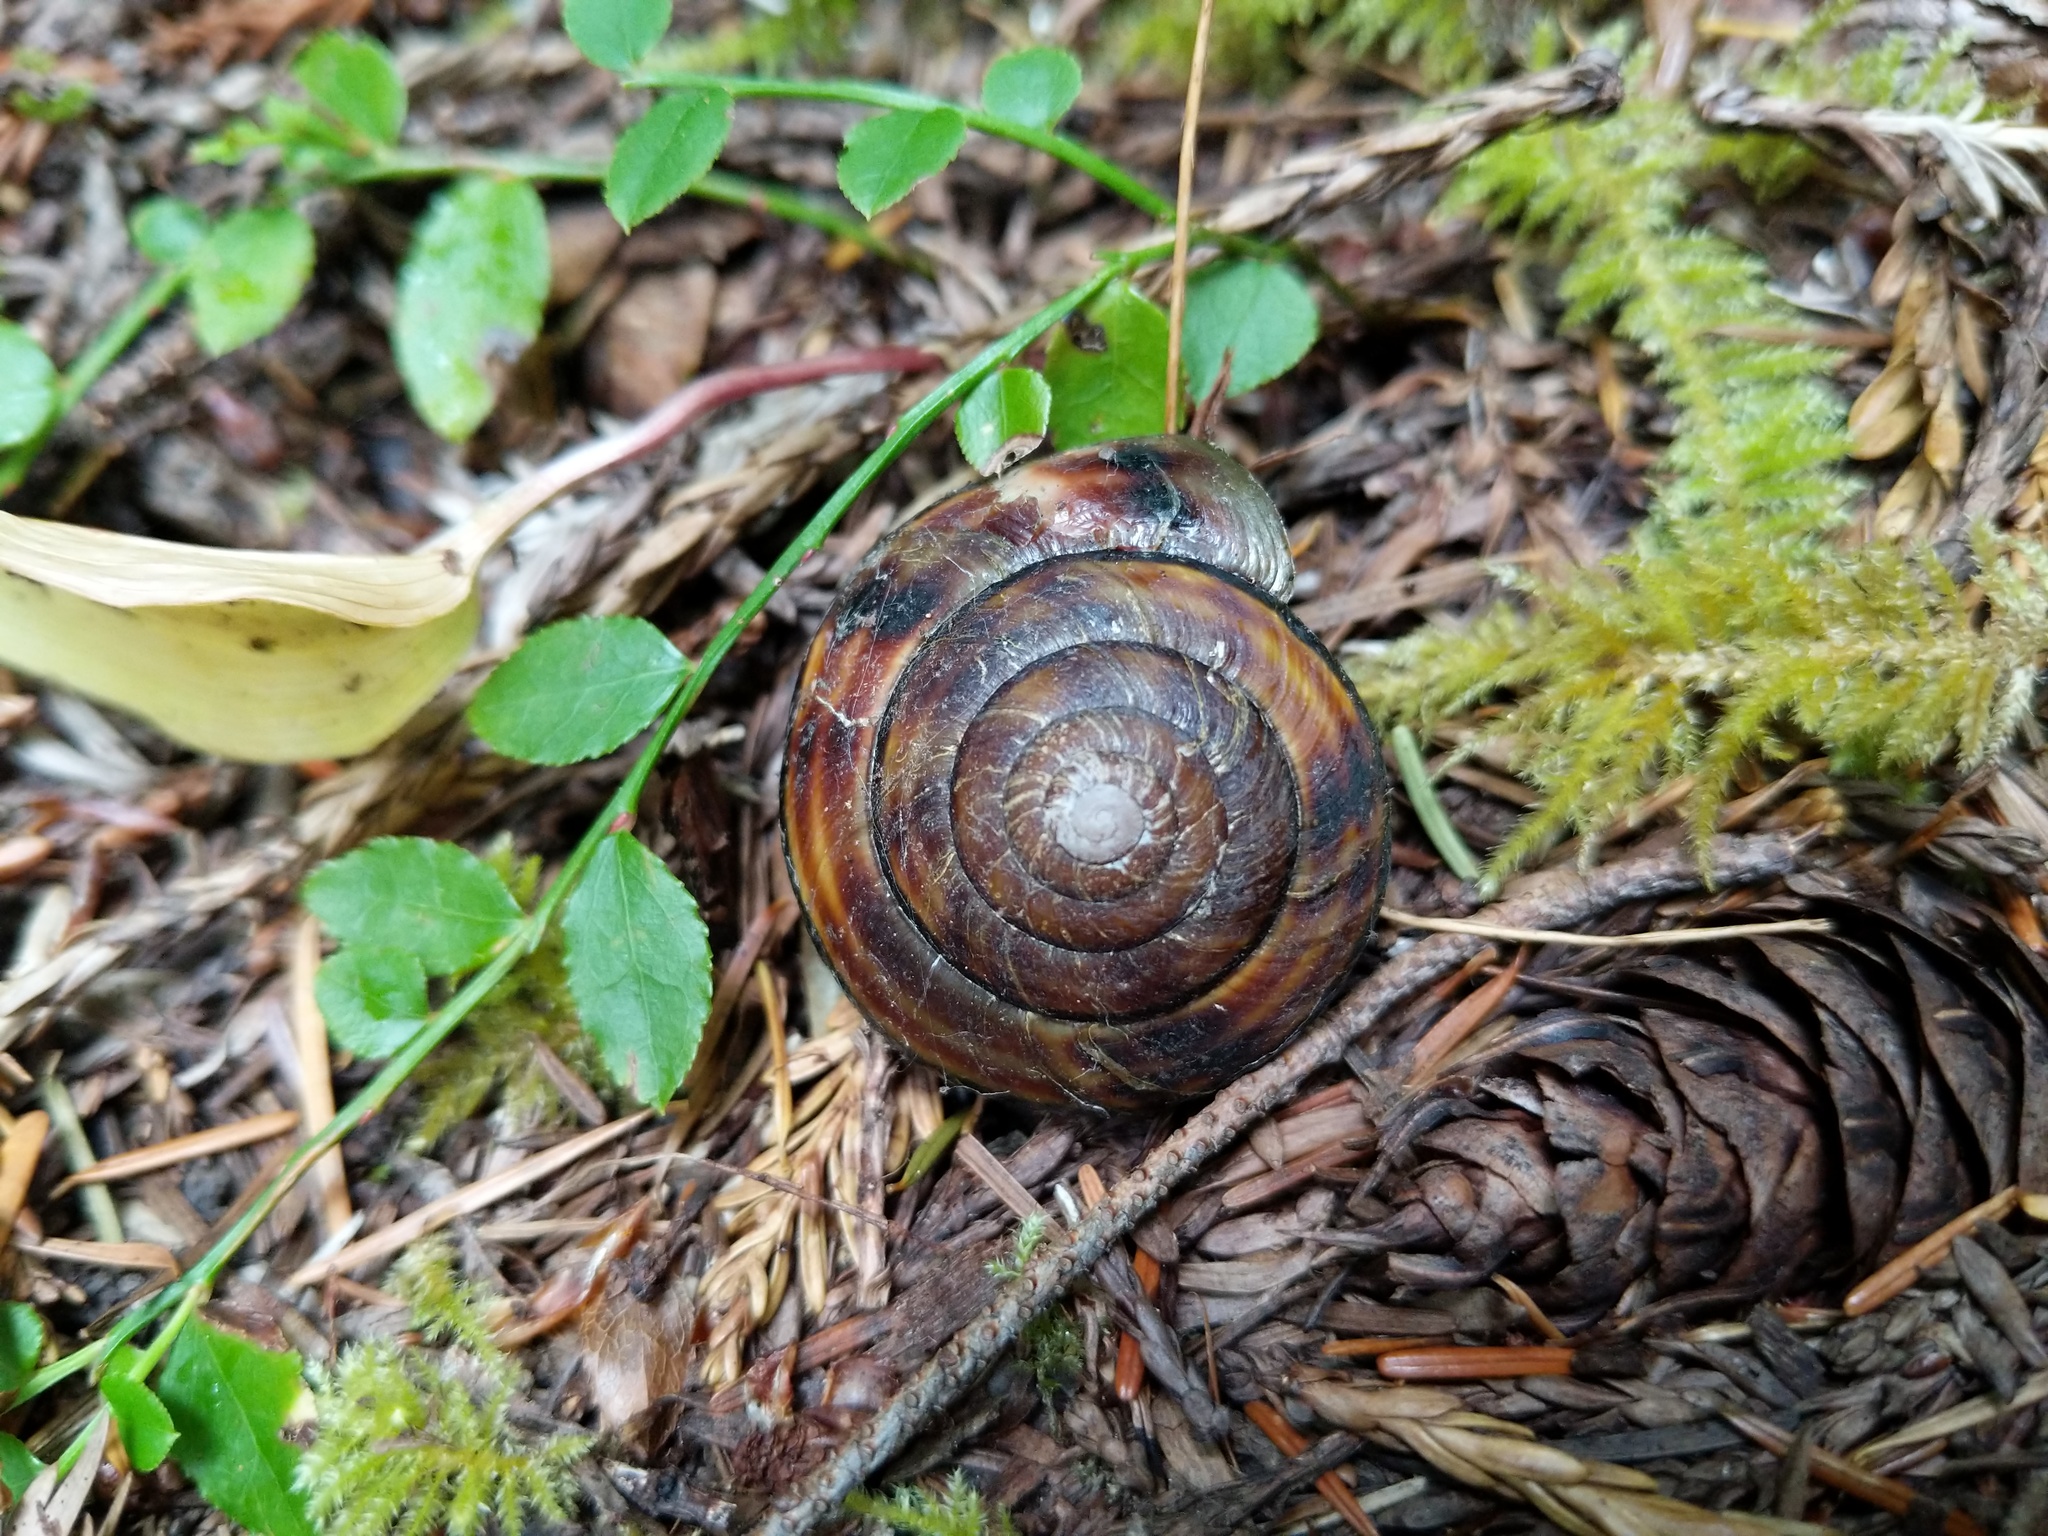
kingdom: Animalia
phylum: Mollusca
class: Gastropoda
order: Stylommatophora
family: Xanthonychidae
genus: Monadenia
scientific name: Monadenia infumata
